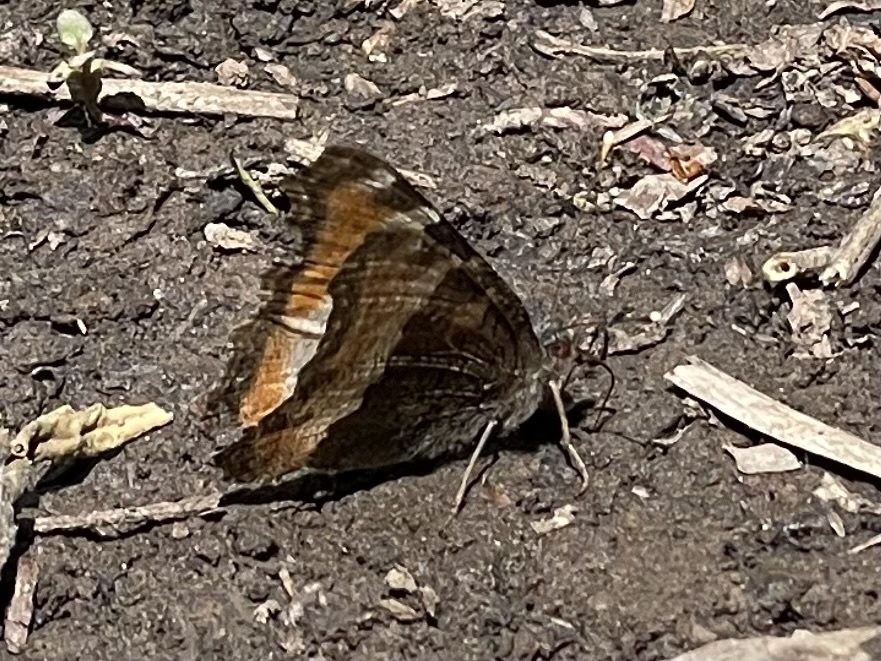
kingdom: Animalia
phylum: Arthropoda
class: Insecta
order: Lepidoptera
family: Nymphalidae
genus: Aglais
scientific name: Aglais milberti
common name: Milbert's tortoiseshell
